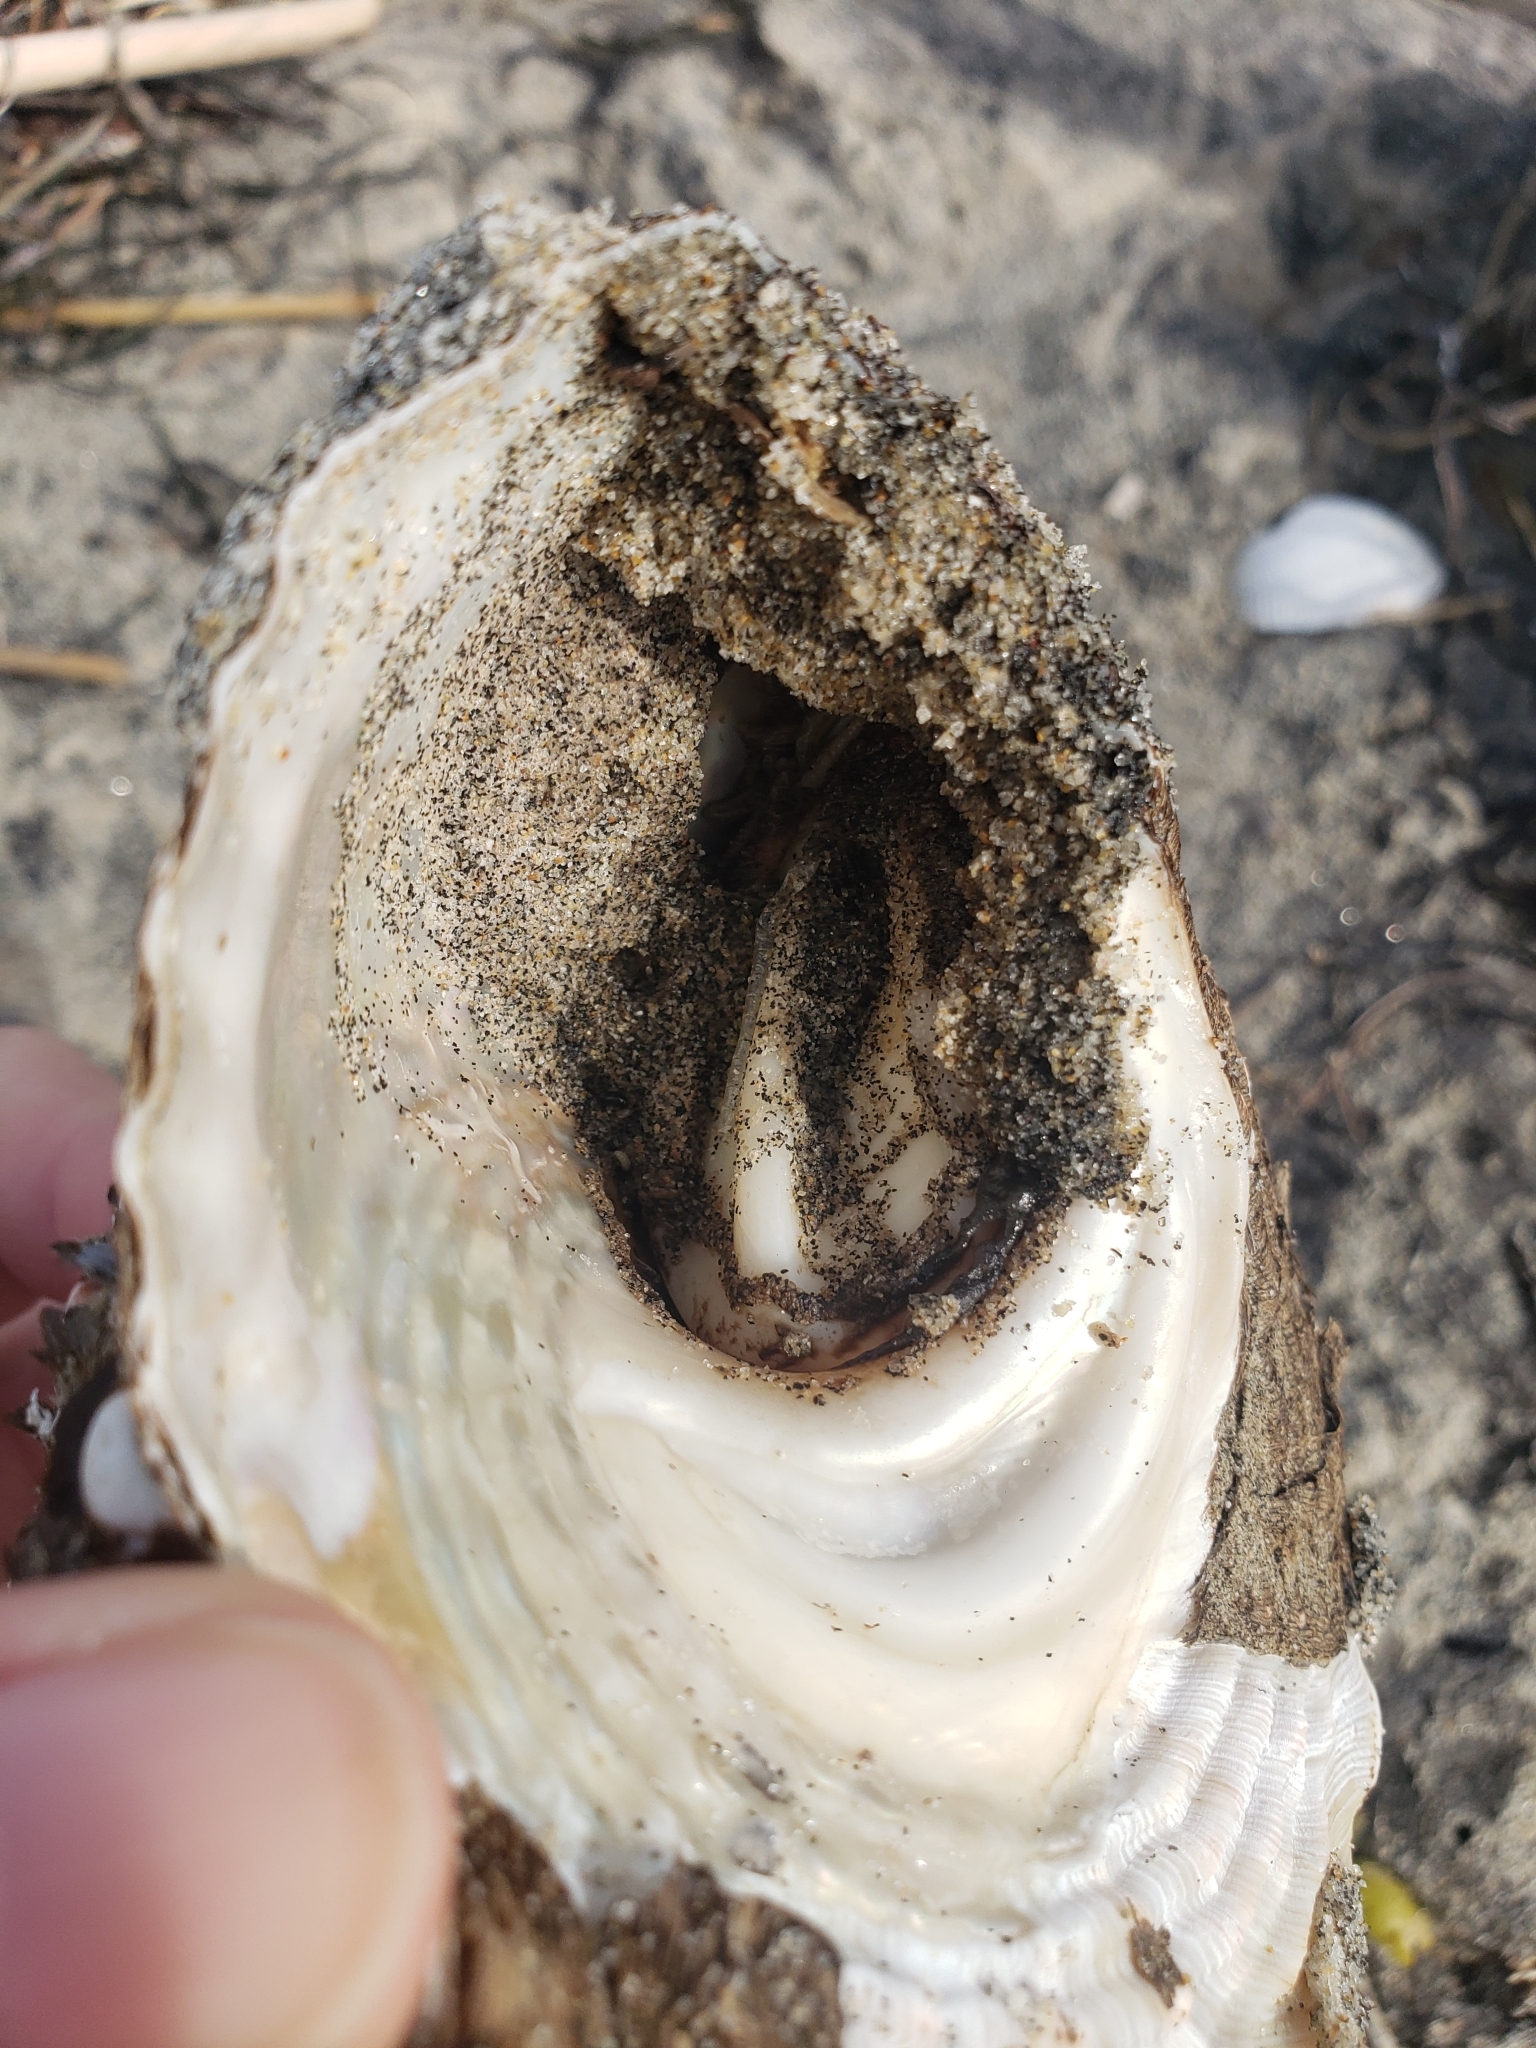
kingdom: Animalia
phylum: Mollusca
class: Gastropoda
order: Trochida
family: Turbinidae
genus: Megastraea
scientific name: Megastraea undosa
